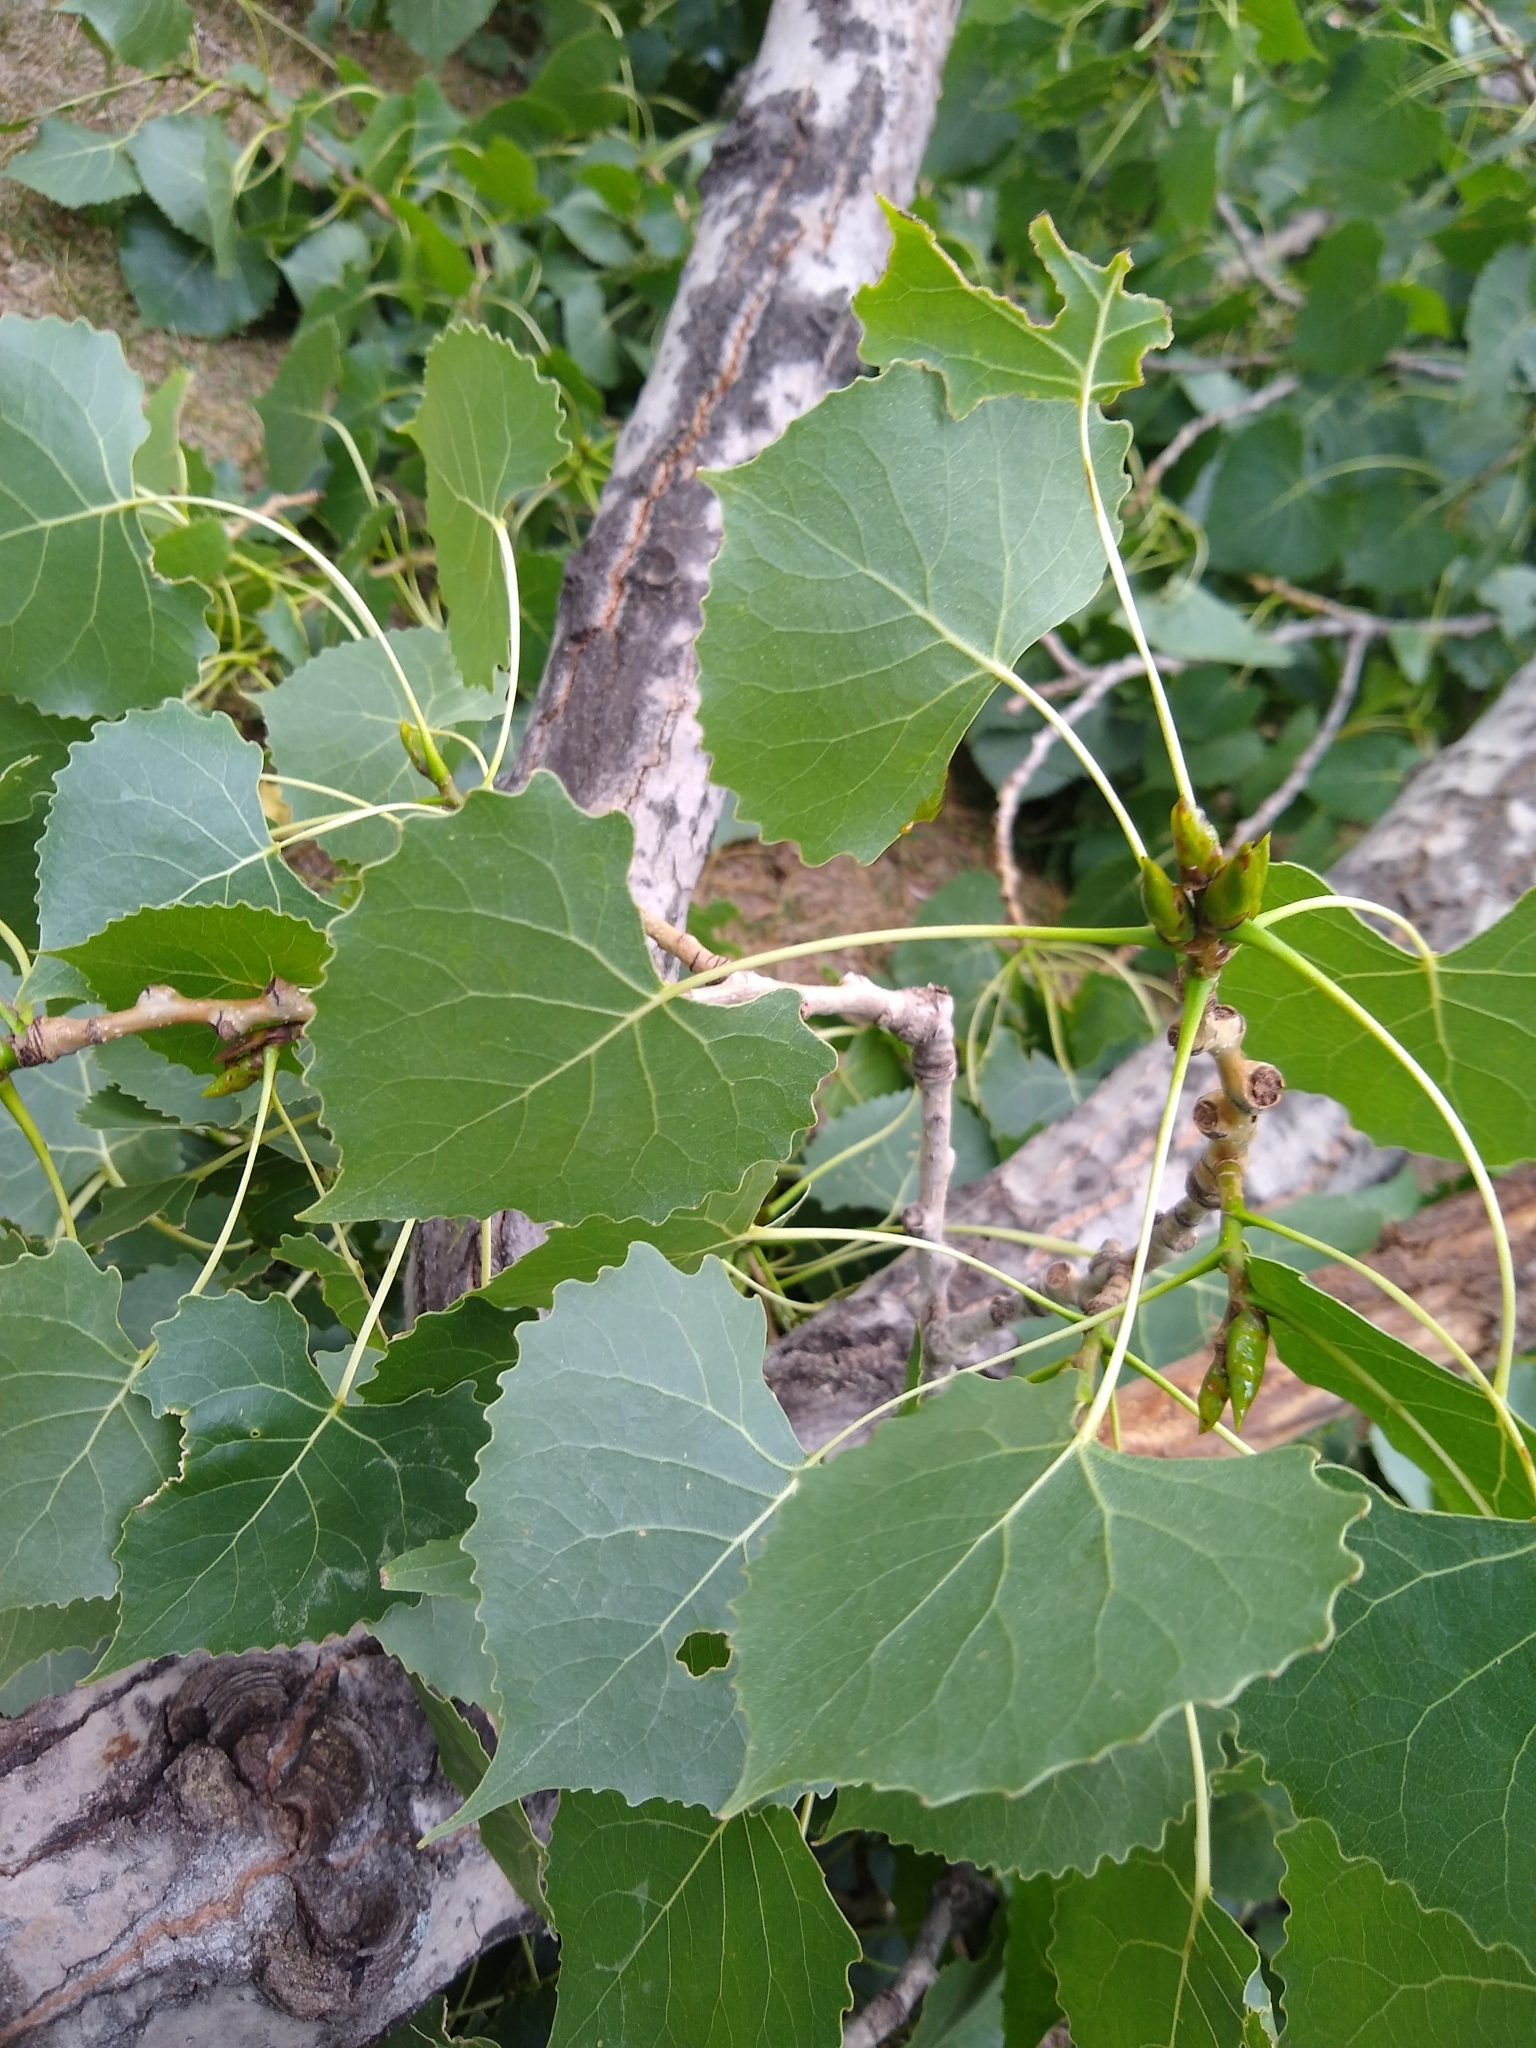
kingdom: Plantae
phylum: Tracheophyta
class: Magnoliopsida
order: Malpighiales
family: Salicaceae
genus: Populus
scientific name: Populus deltoides
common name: Eastern cottonwood
